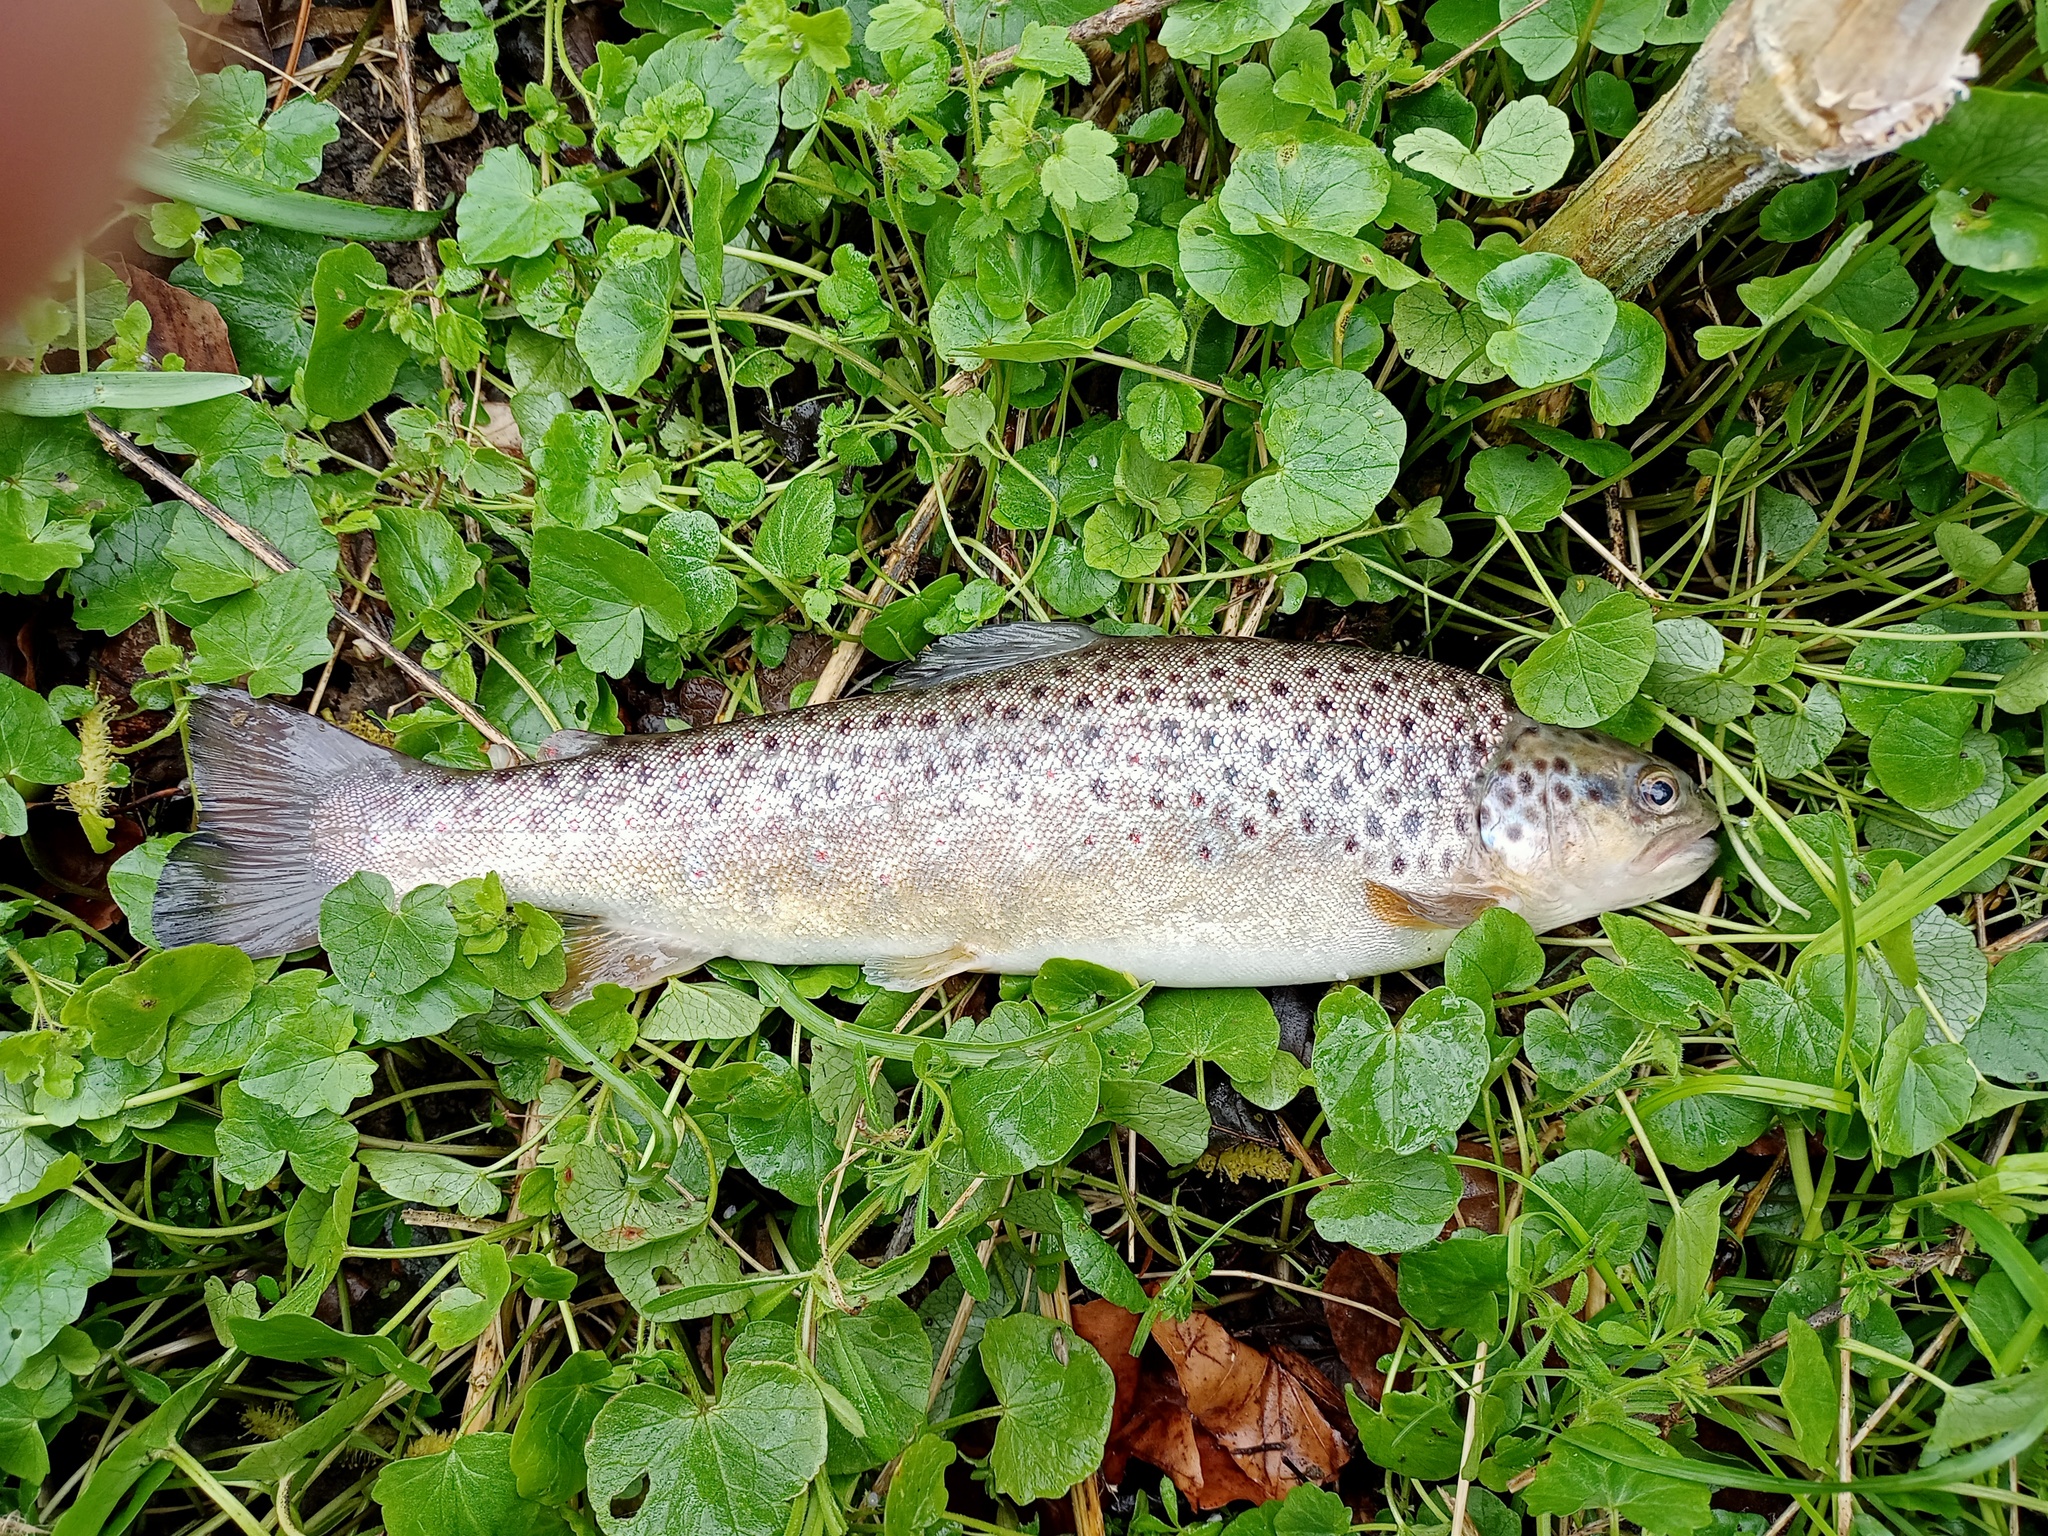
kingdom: Animalia
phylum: Chordata
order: Salmoniformes
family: Salmonidae
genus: Salmo
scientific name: Salmo trutta
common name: Brown trout
